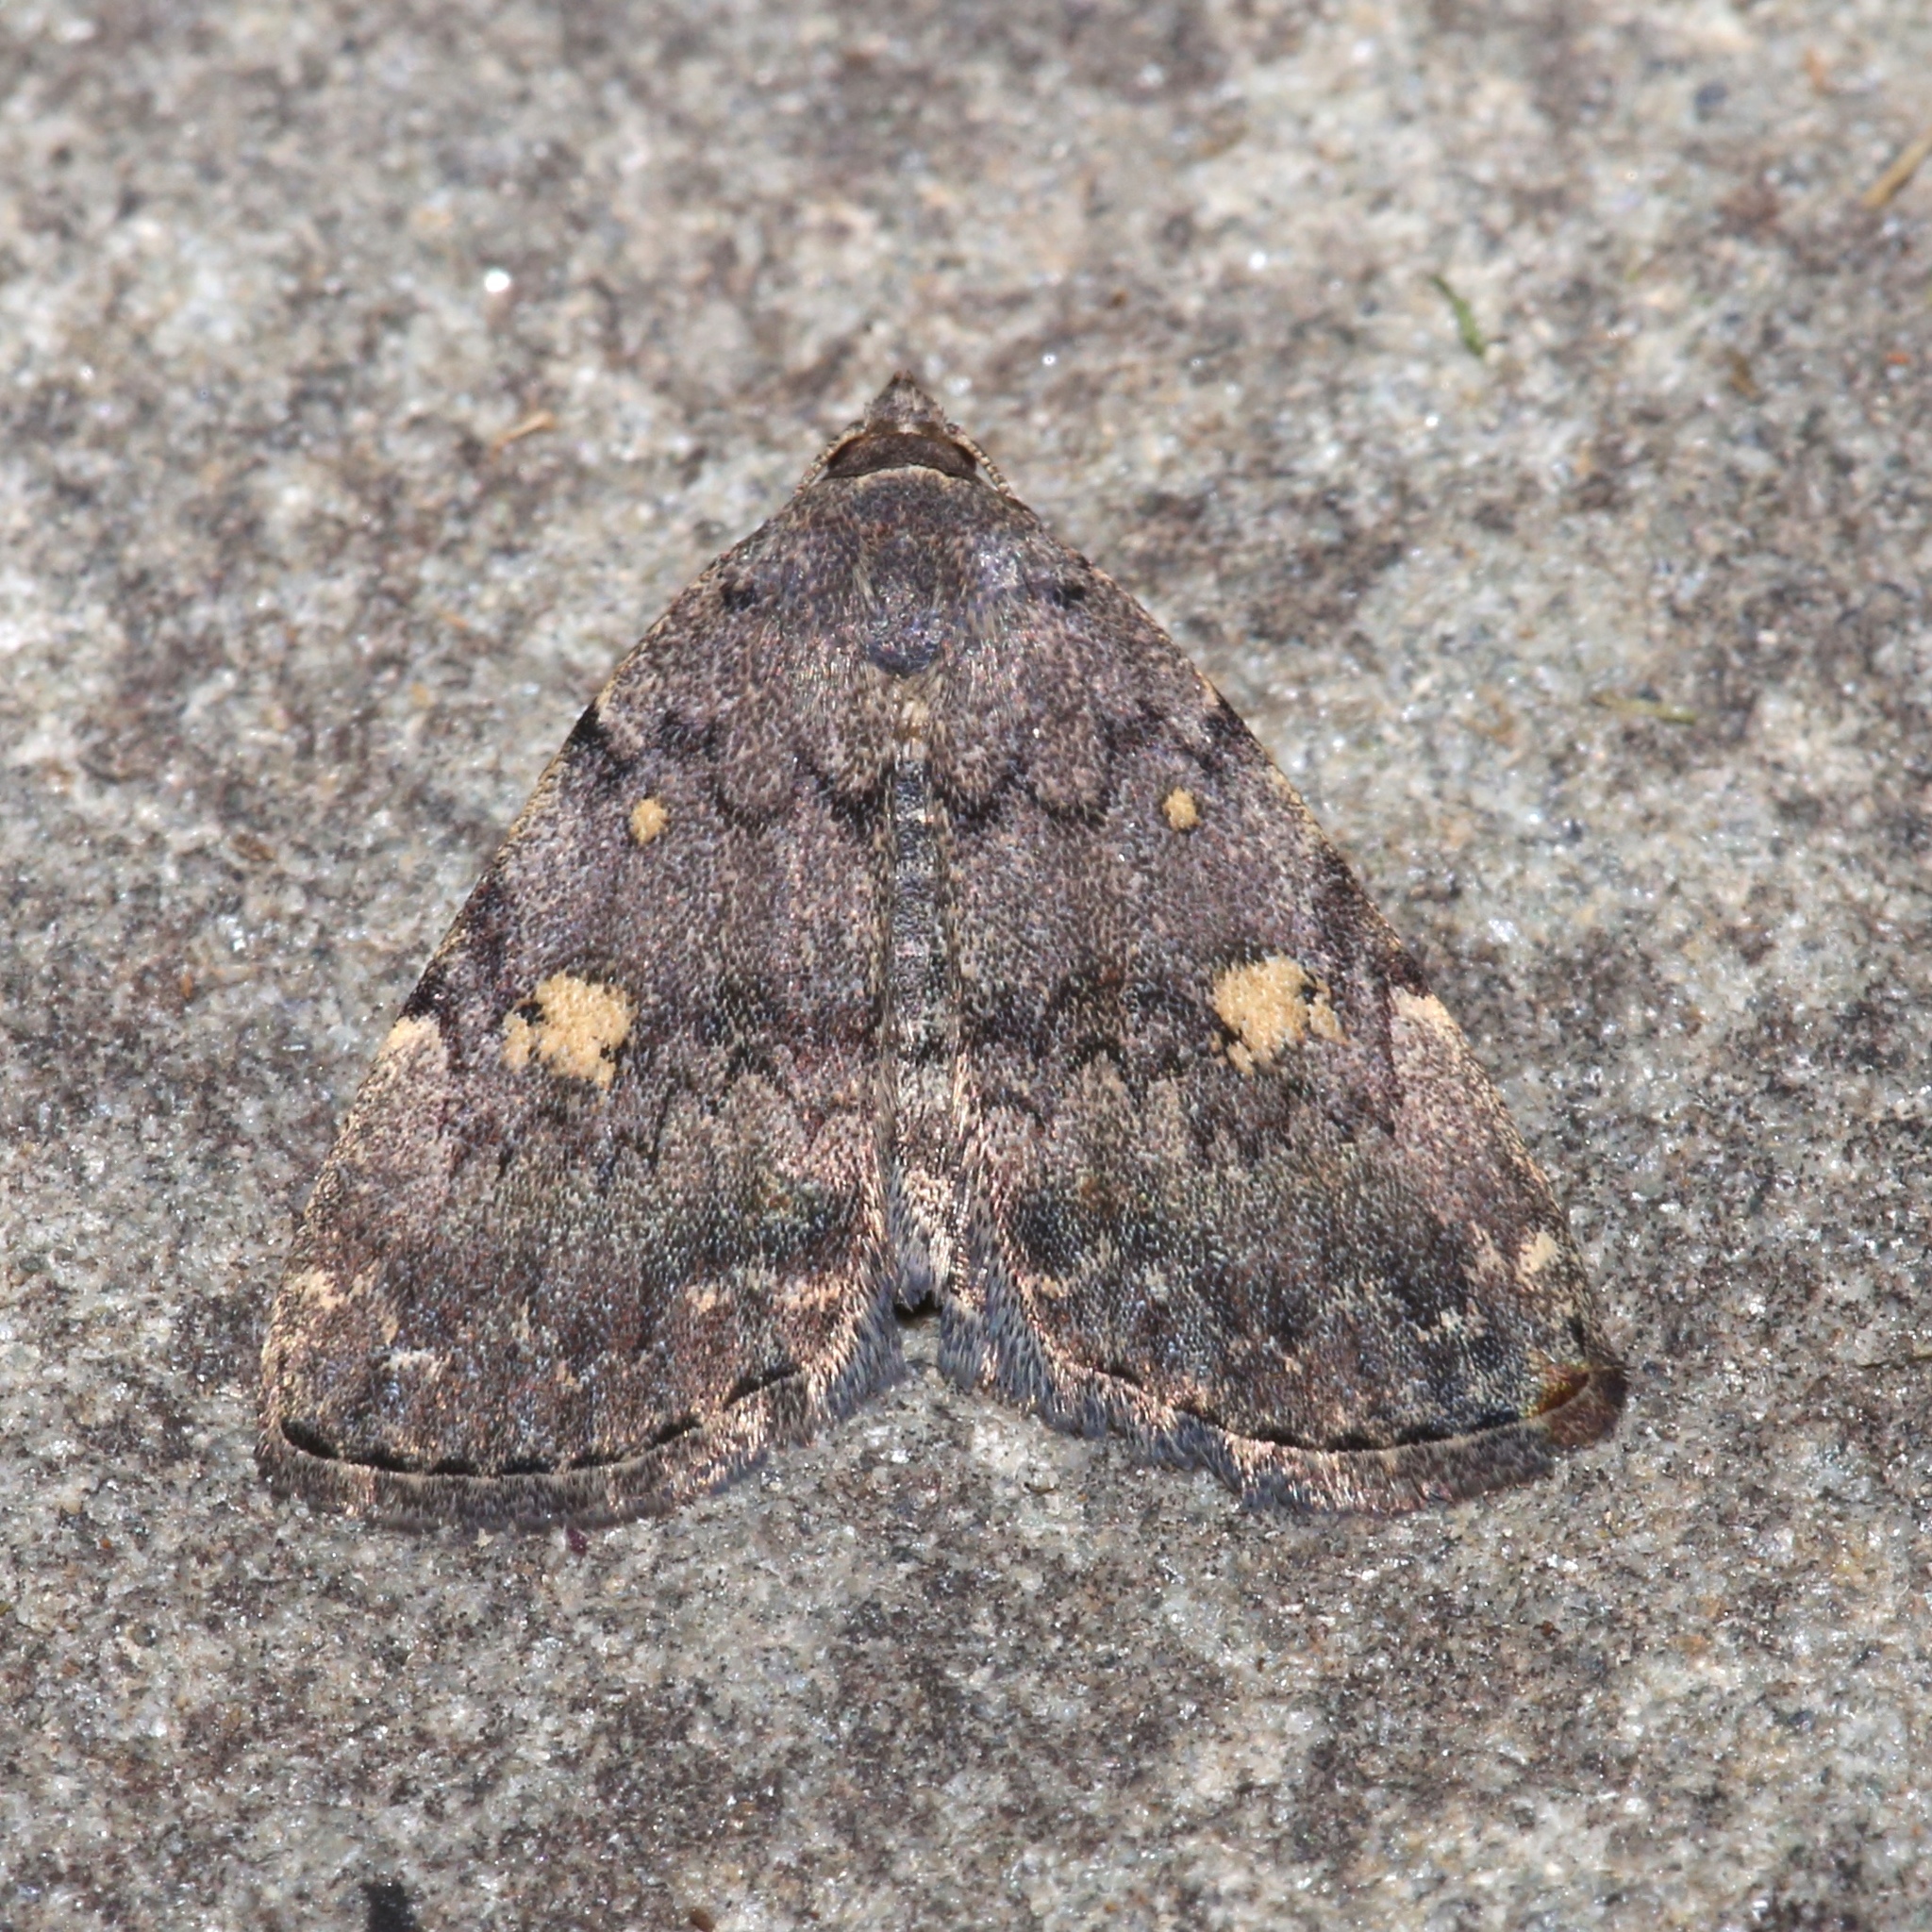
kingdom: Animalia
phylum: Arthropoda
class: Insecta
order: Lepidoptera
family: Erebidae
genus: Idia
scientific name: Idia aemula
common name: Common idia moth
